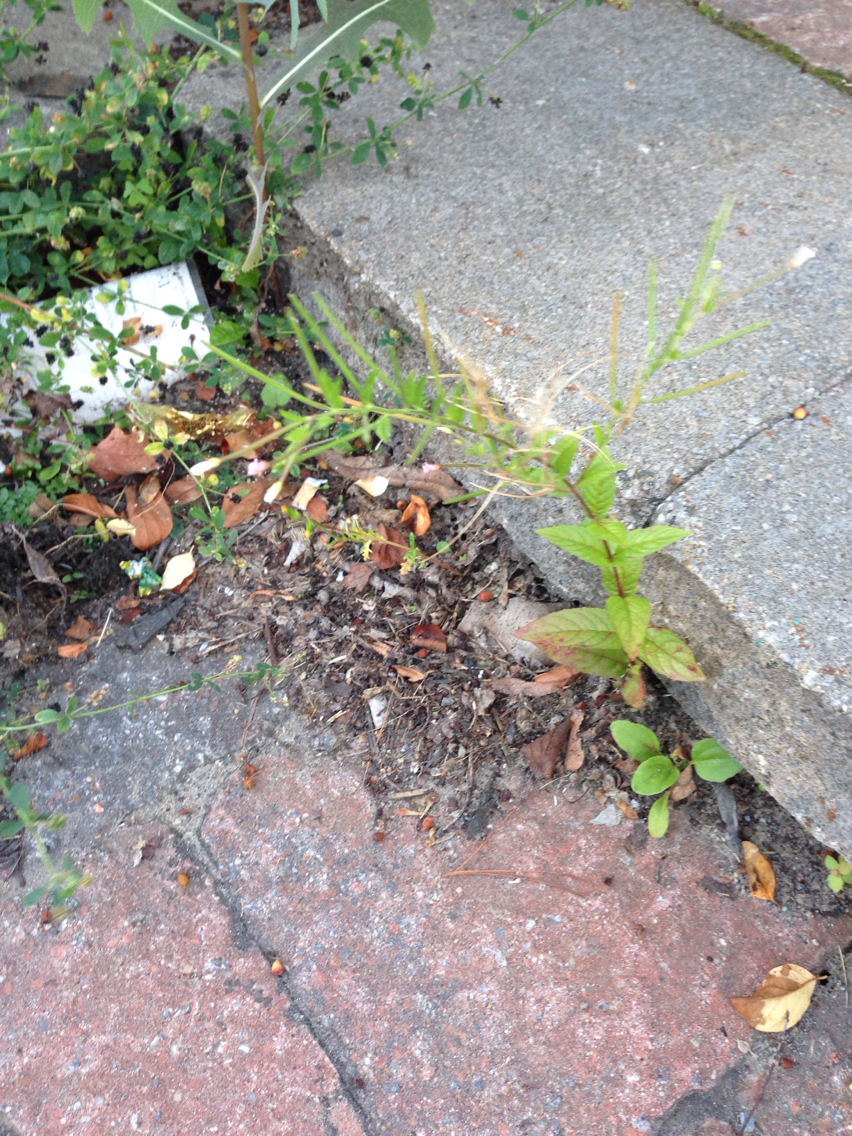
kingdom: Plantae
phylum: Tracheophyta
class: Magnoliopsida
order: Myrtales
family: Onagraceae
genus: Epilobium
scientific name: Epilobium ciliatum
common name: American willowherb
